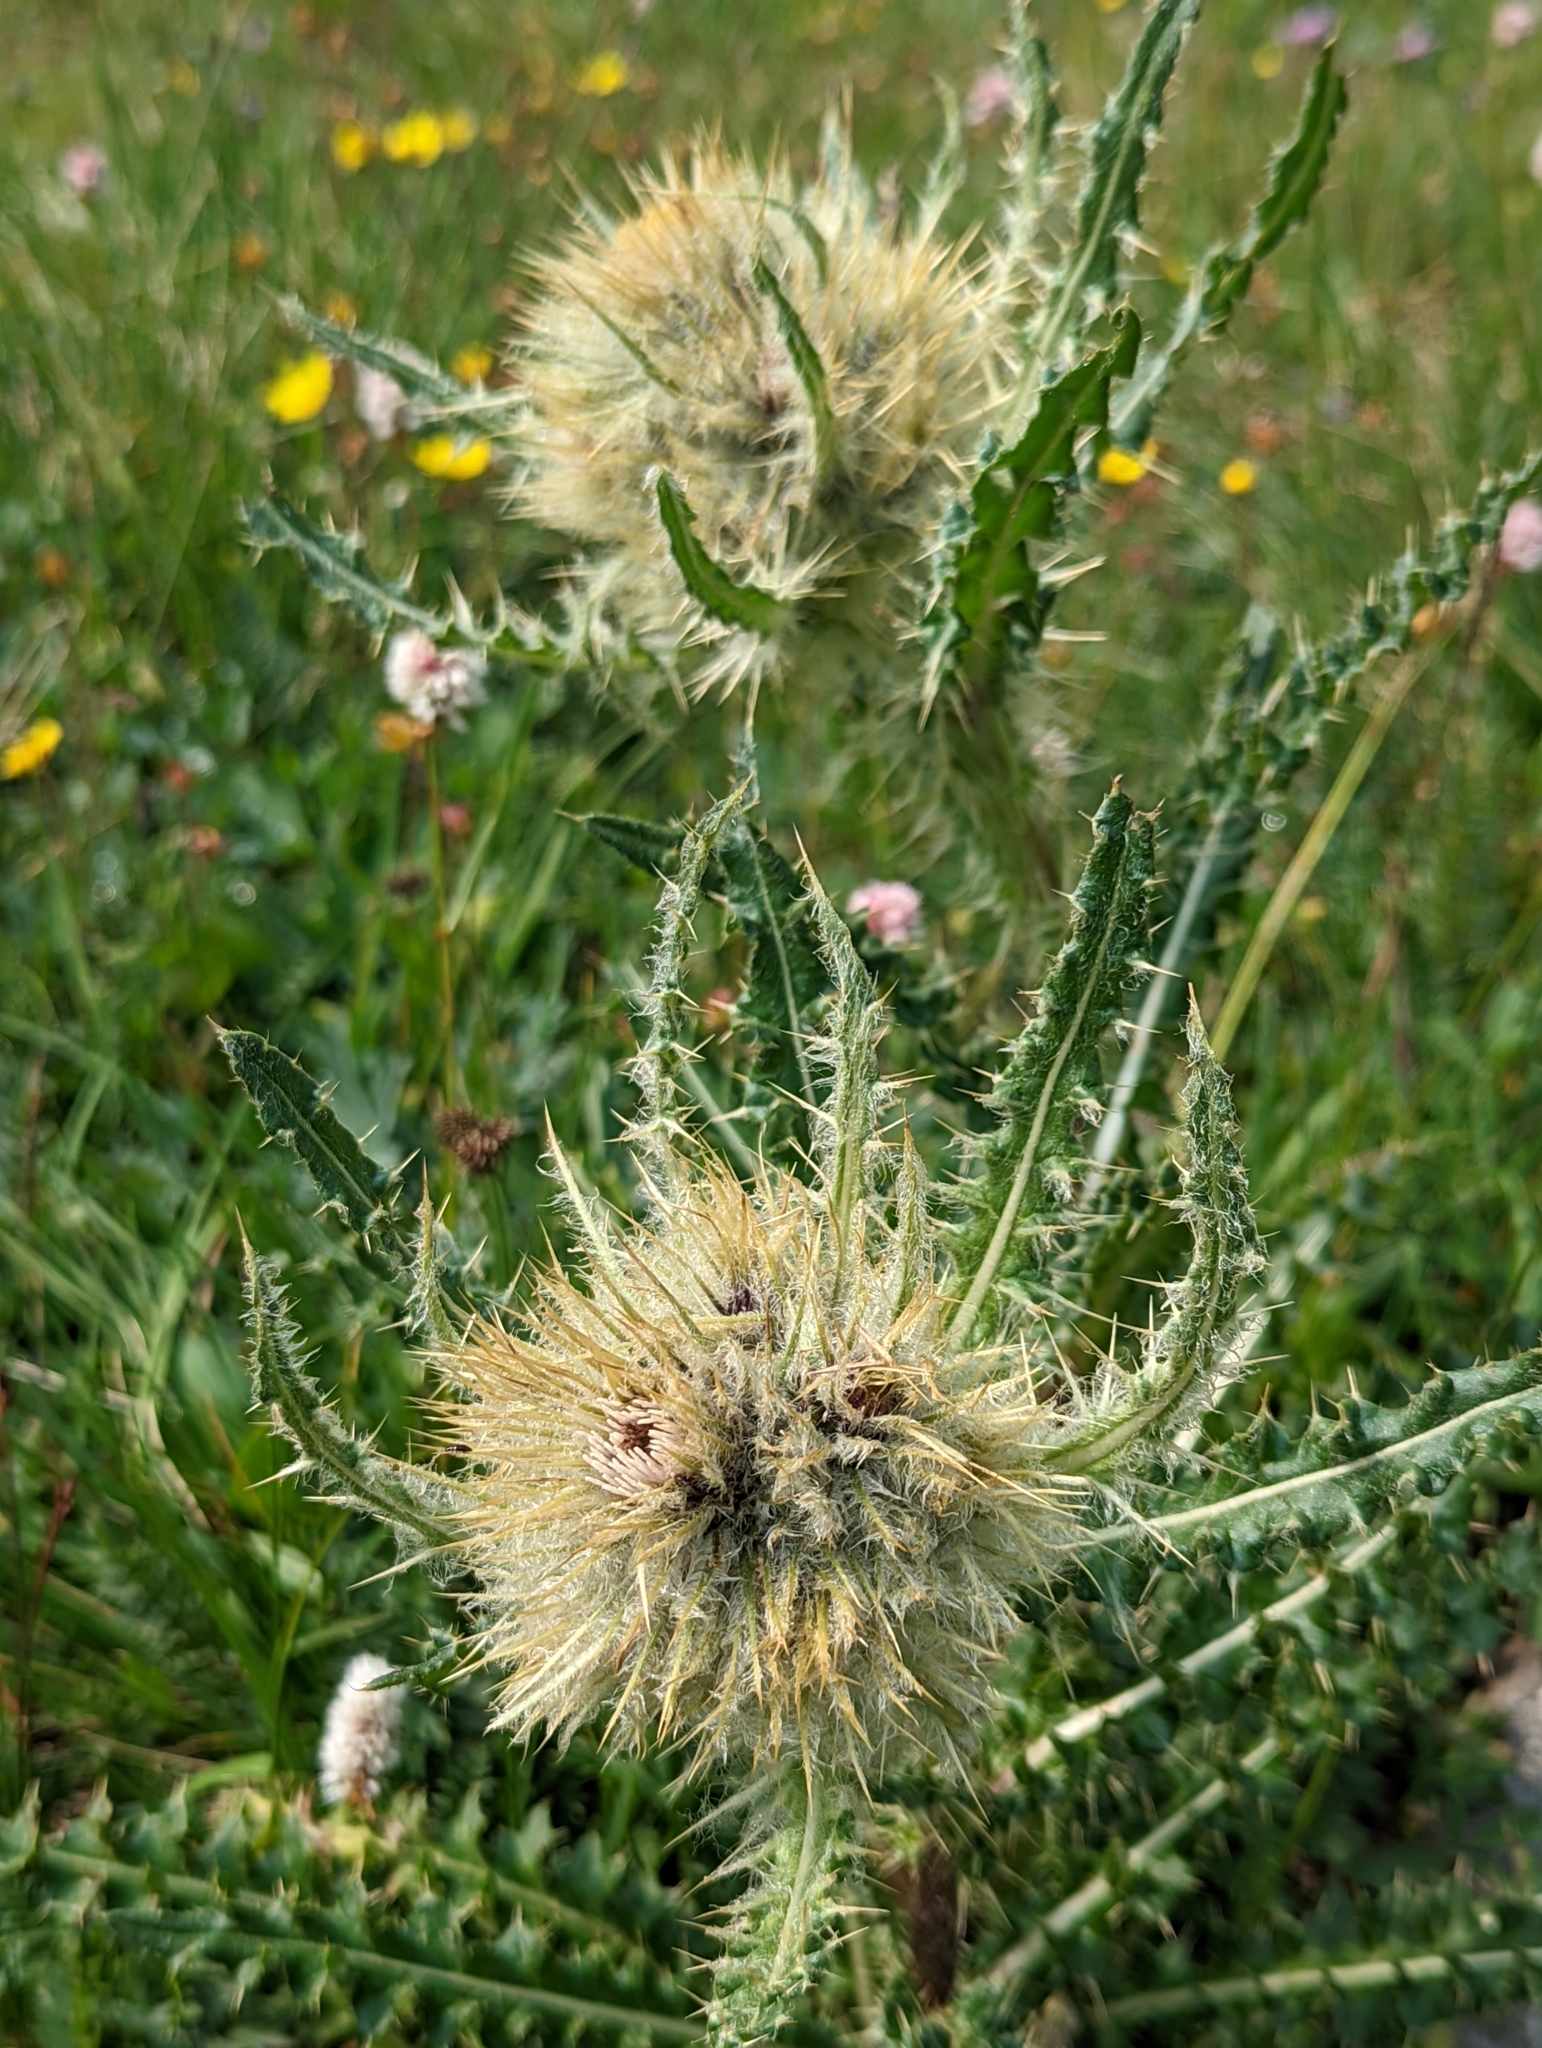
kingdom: Plantae
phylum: Tracheophyta
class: Magnoliopsida
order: Asterales
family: Asteraceae
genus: Cirsium
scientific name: Cirsium scopulorum
